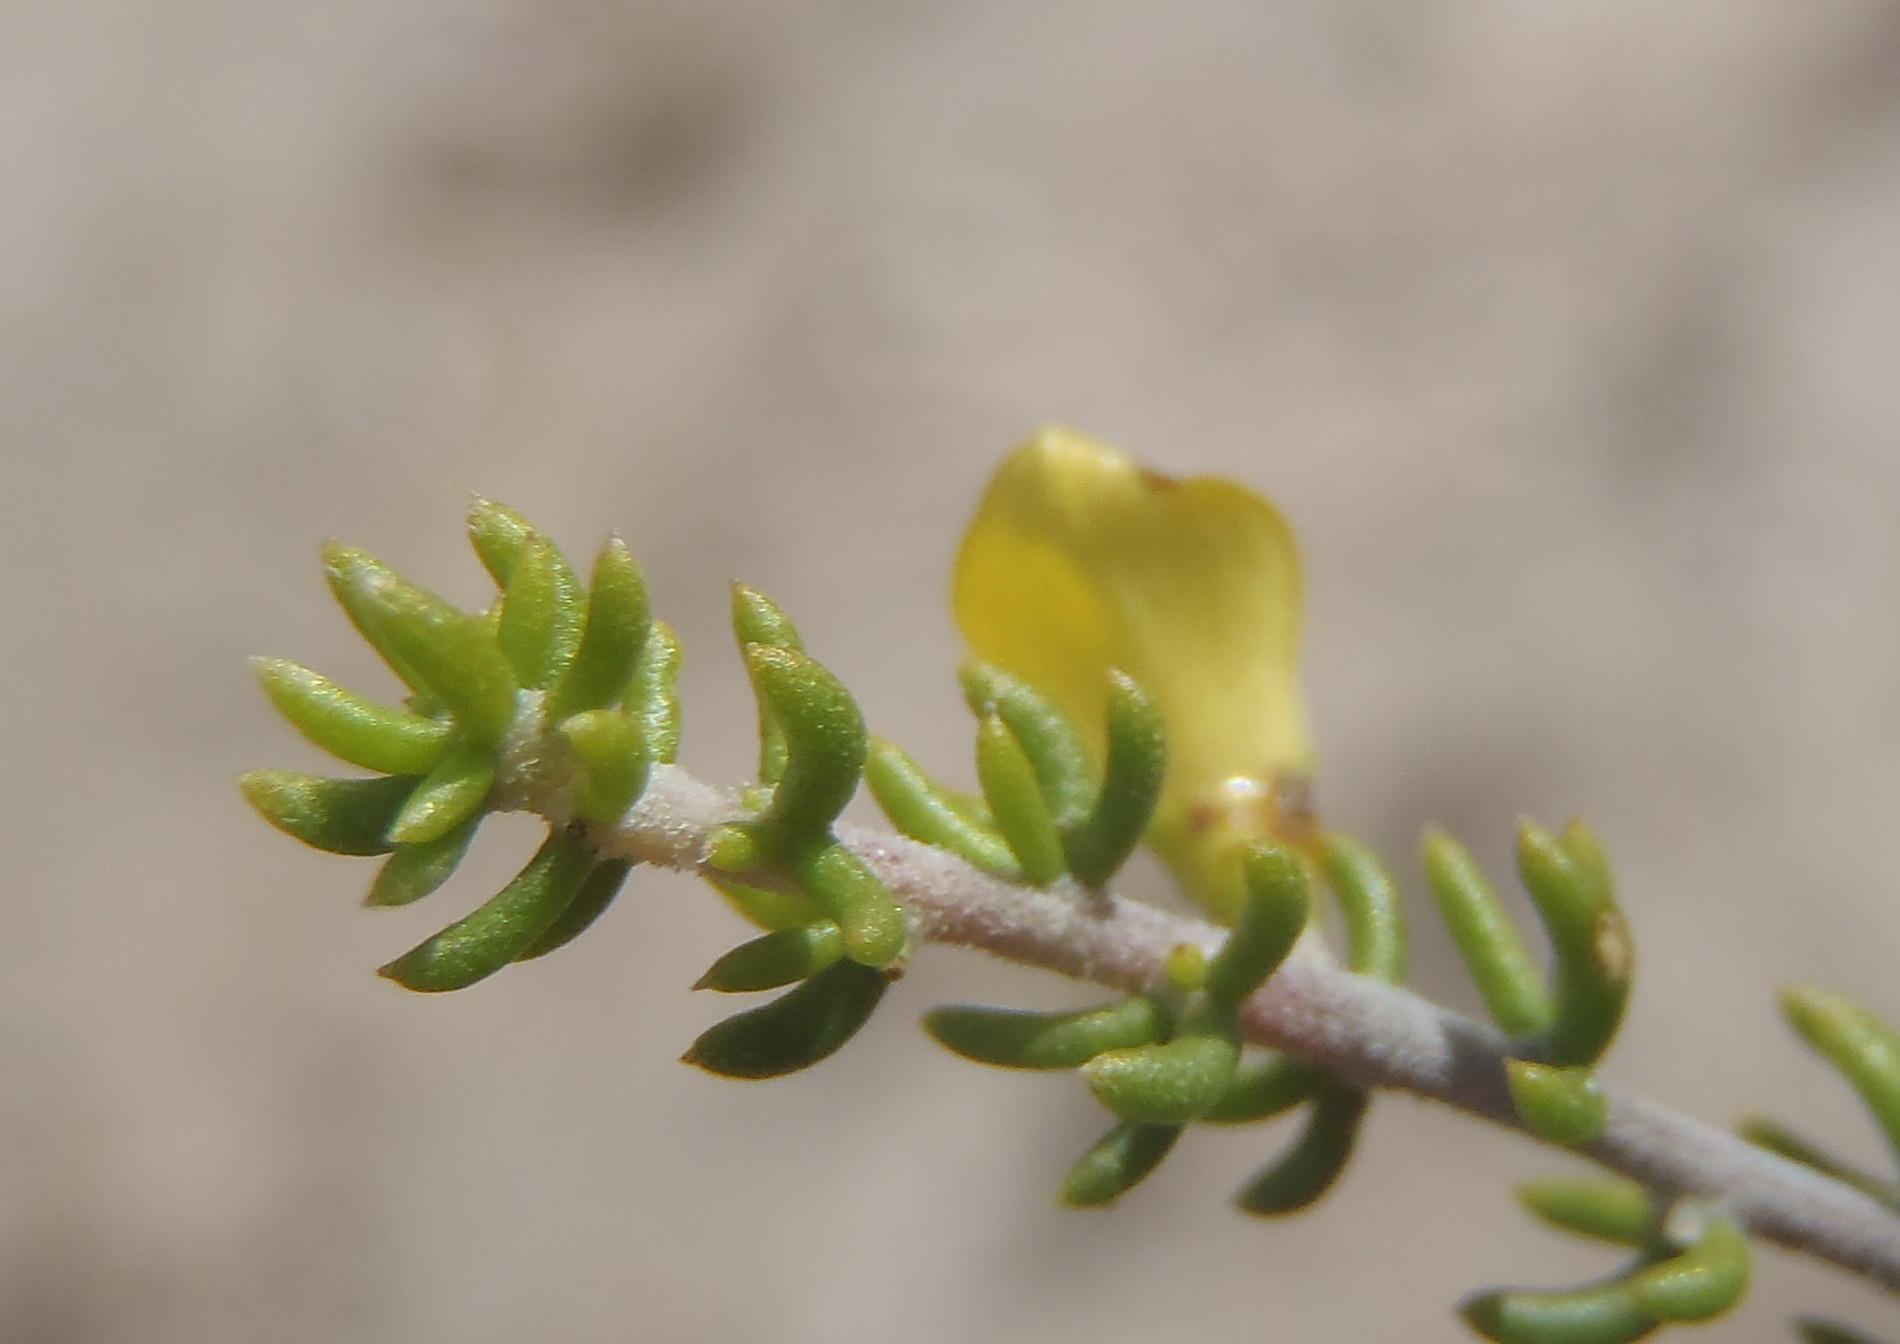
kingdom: Plantae
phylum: Tracheophyta
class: Magnoliopsida
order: Fabales
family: Fabaceae
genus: Aspalathus
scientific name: Aspalathus subtingens
